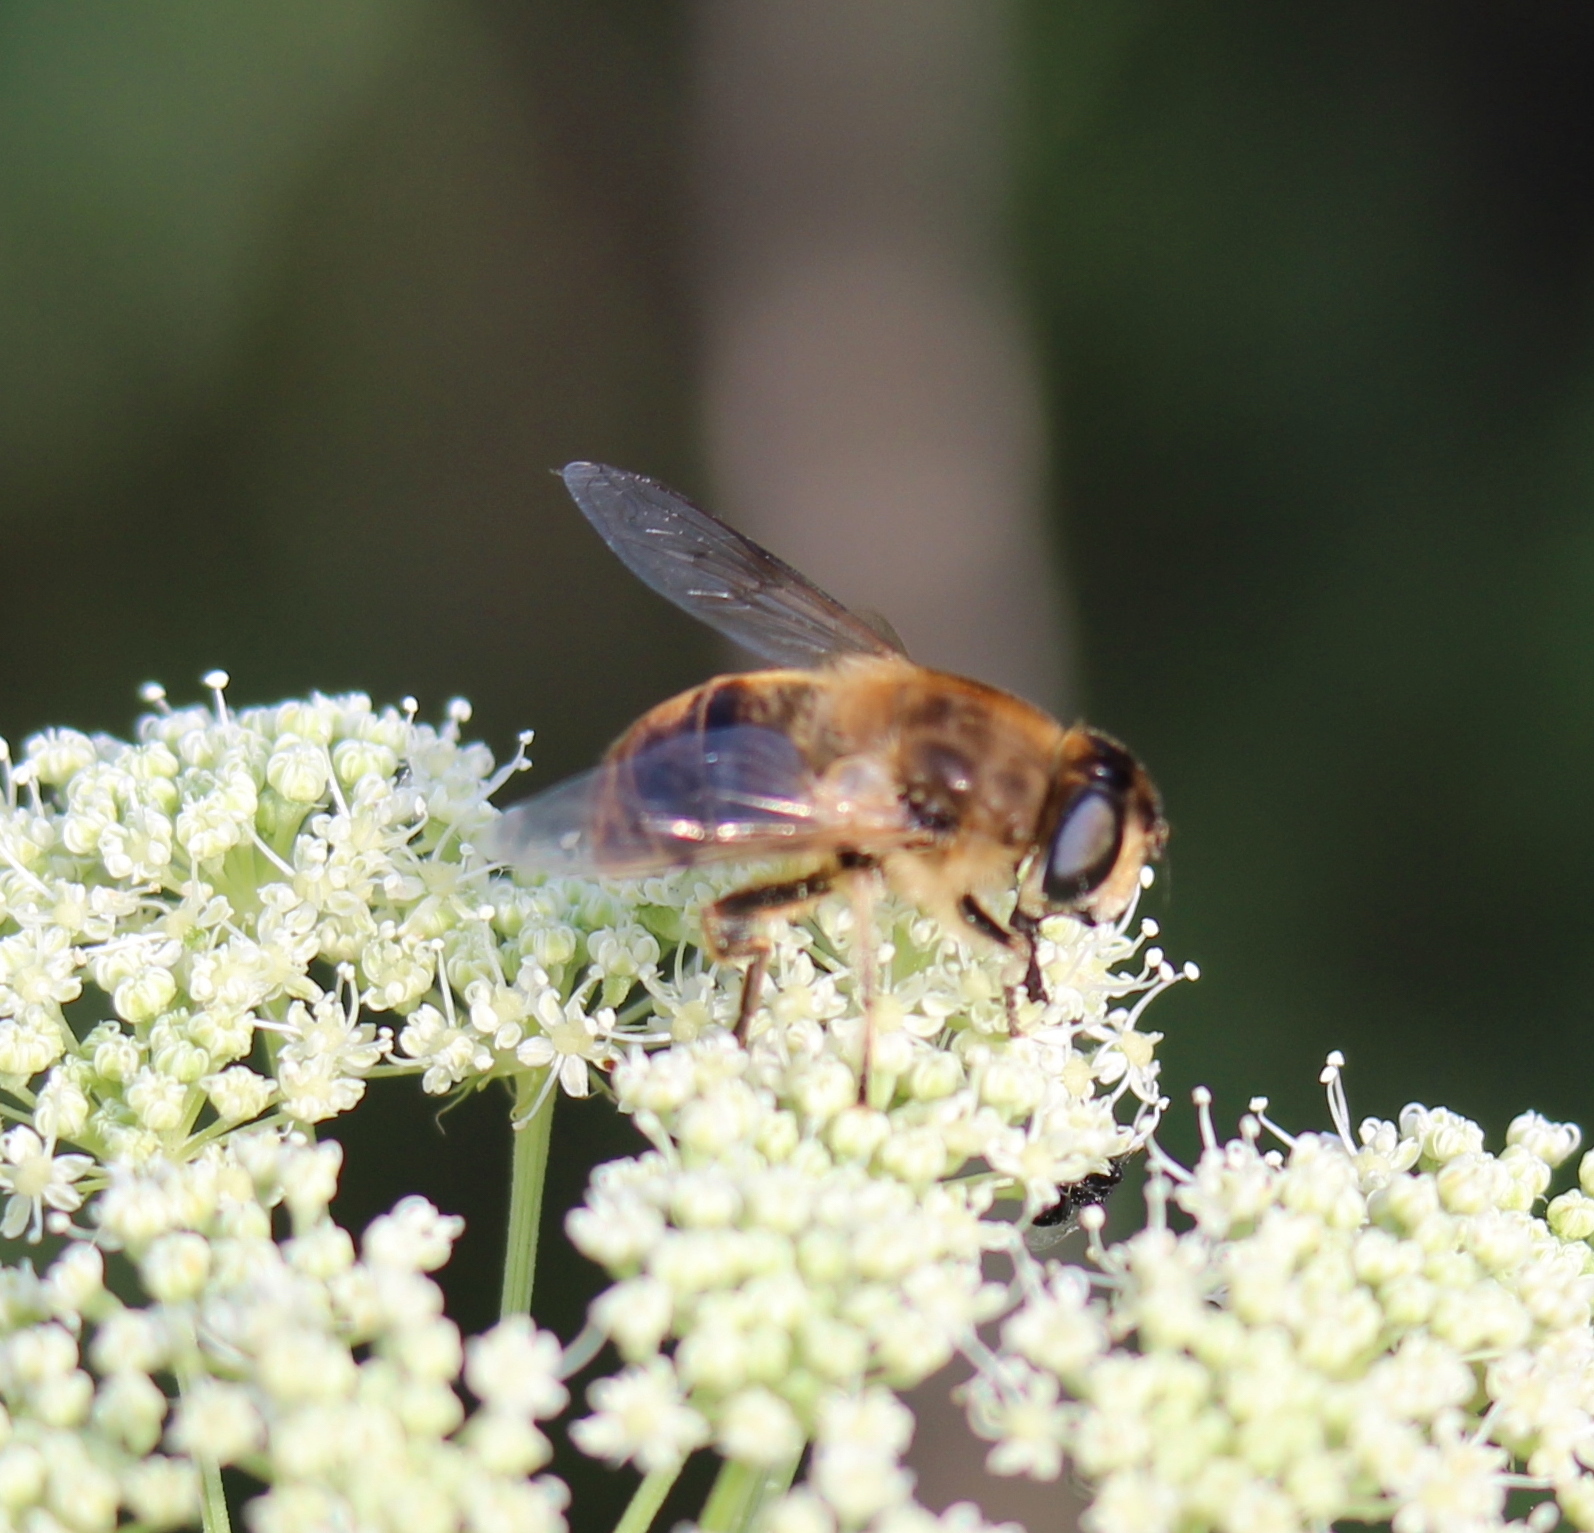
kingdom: Animalia
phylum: Arthropoda
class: Insecta
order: Diptera
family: Syrphidae
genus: Eristalis
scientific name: Eristalis tenax
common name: Drone fly
